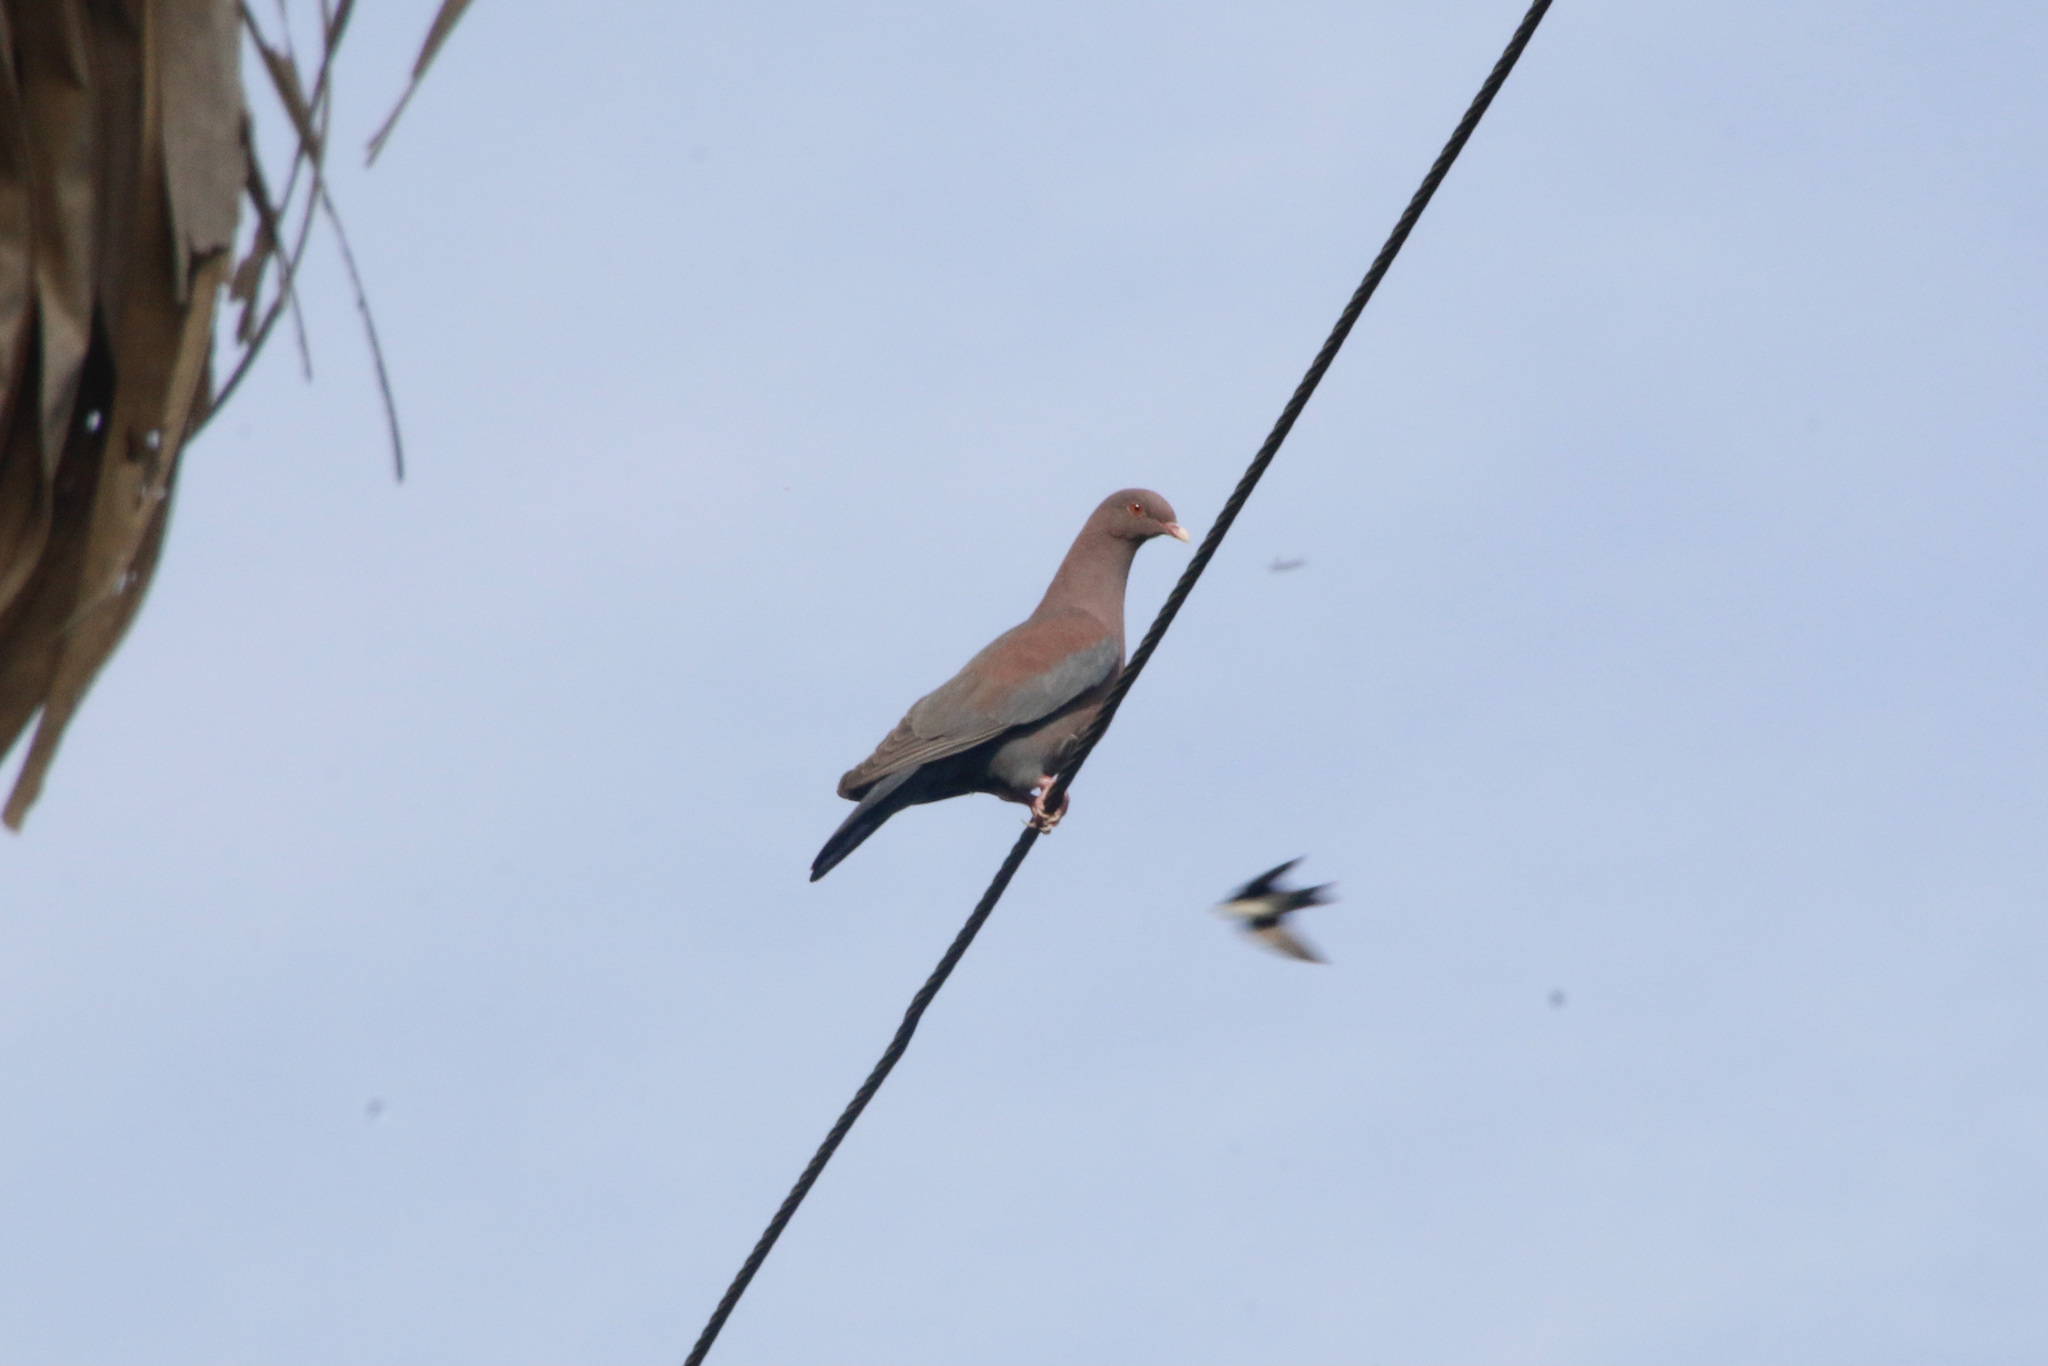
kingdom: Animalia
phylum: Chordata
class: Aves
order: Columbiformes
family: Columbidae
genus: Patagioenas
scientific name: Patagioenas flavirostris
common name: Red-billed pigeon
